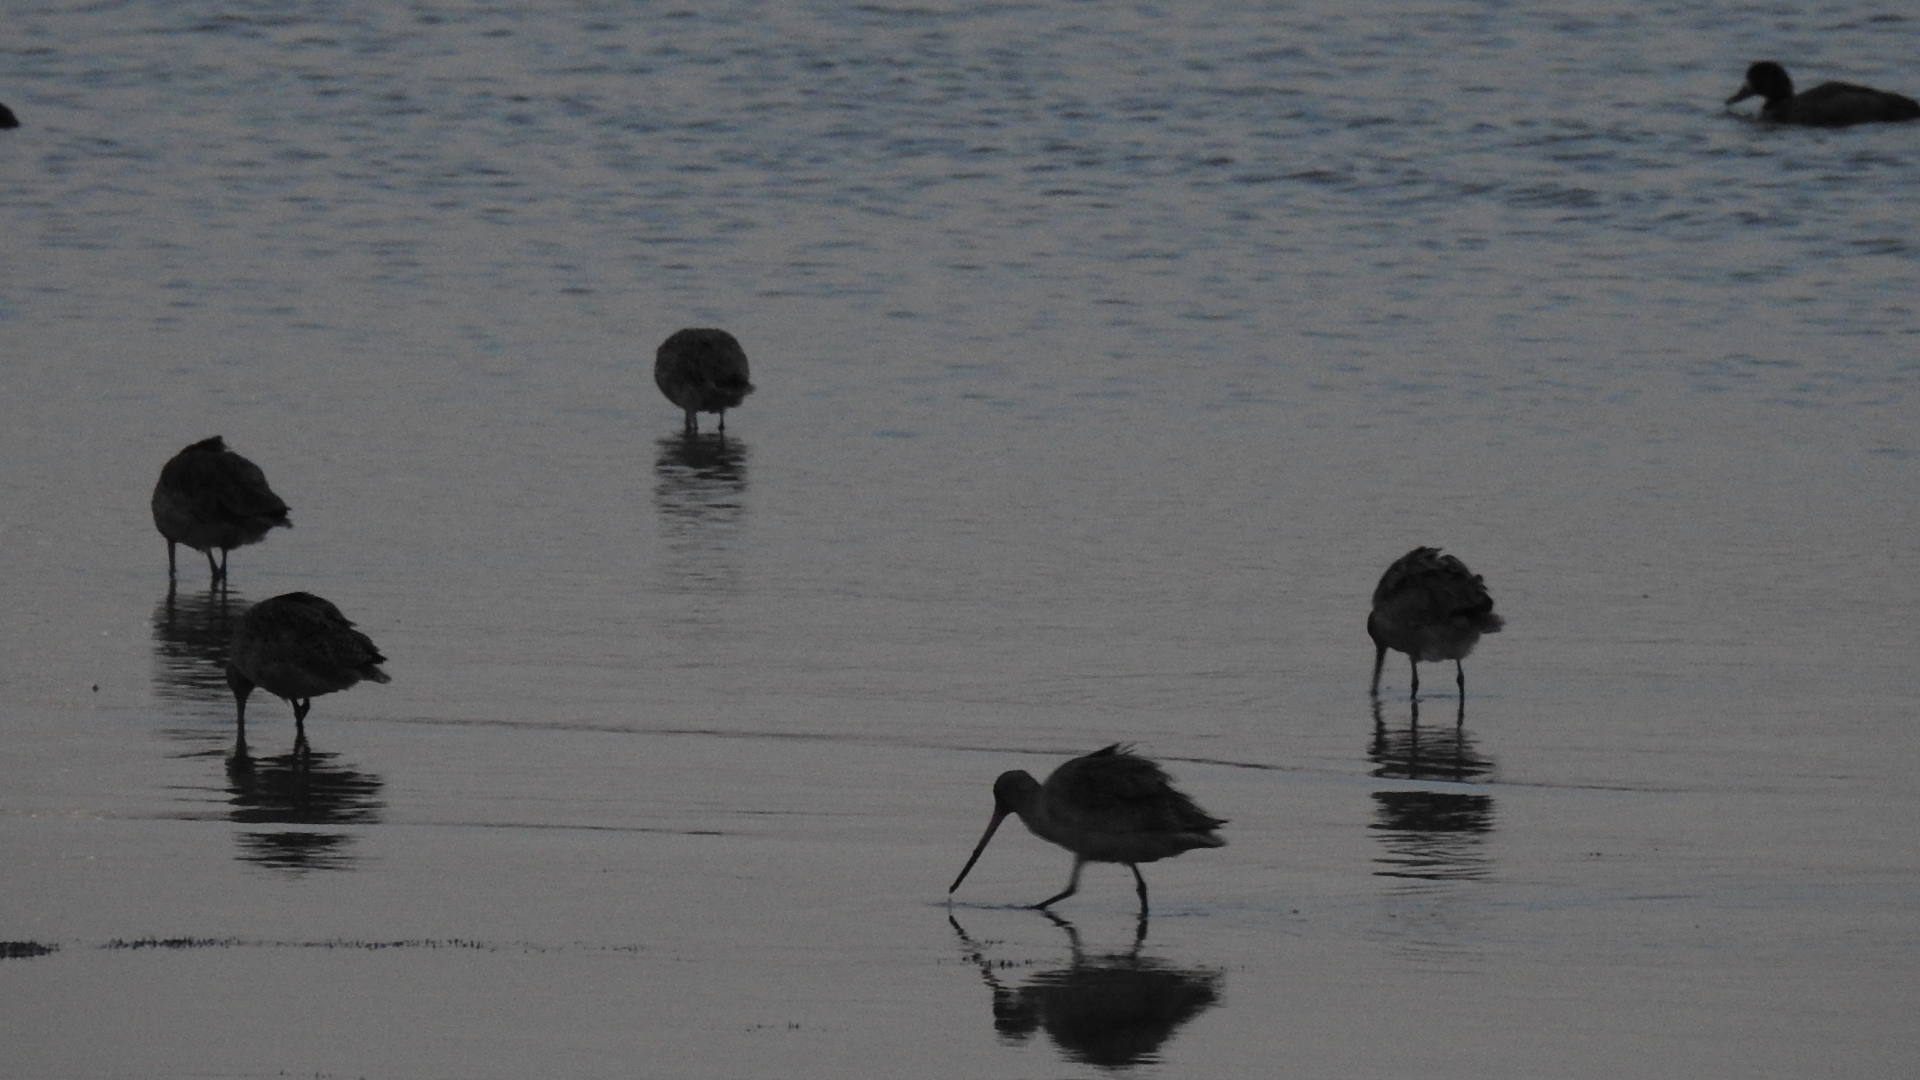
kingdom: Animalia
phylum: Chordata
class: Aves
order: Charadriiformes
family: Scolopacidae
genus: Limosa
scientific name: Limosa fedoa
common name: Marbled godwit
